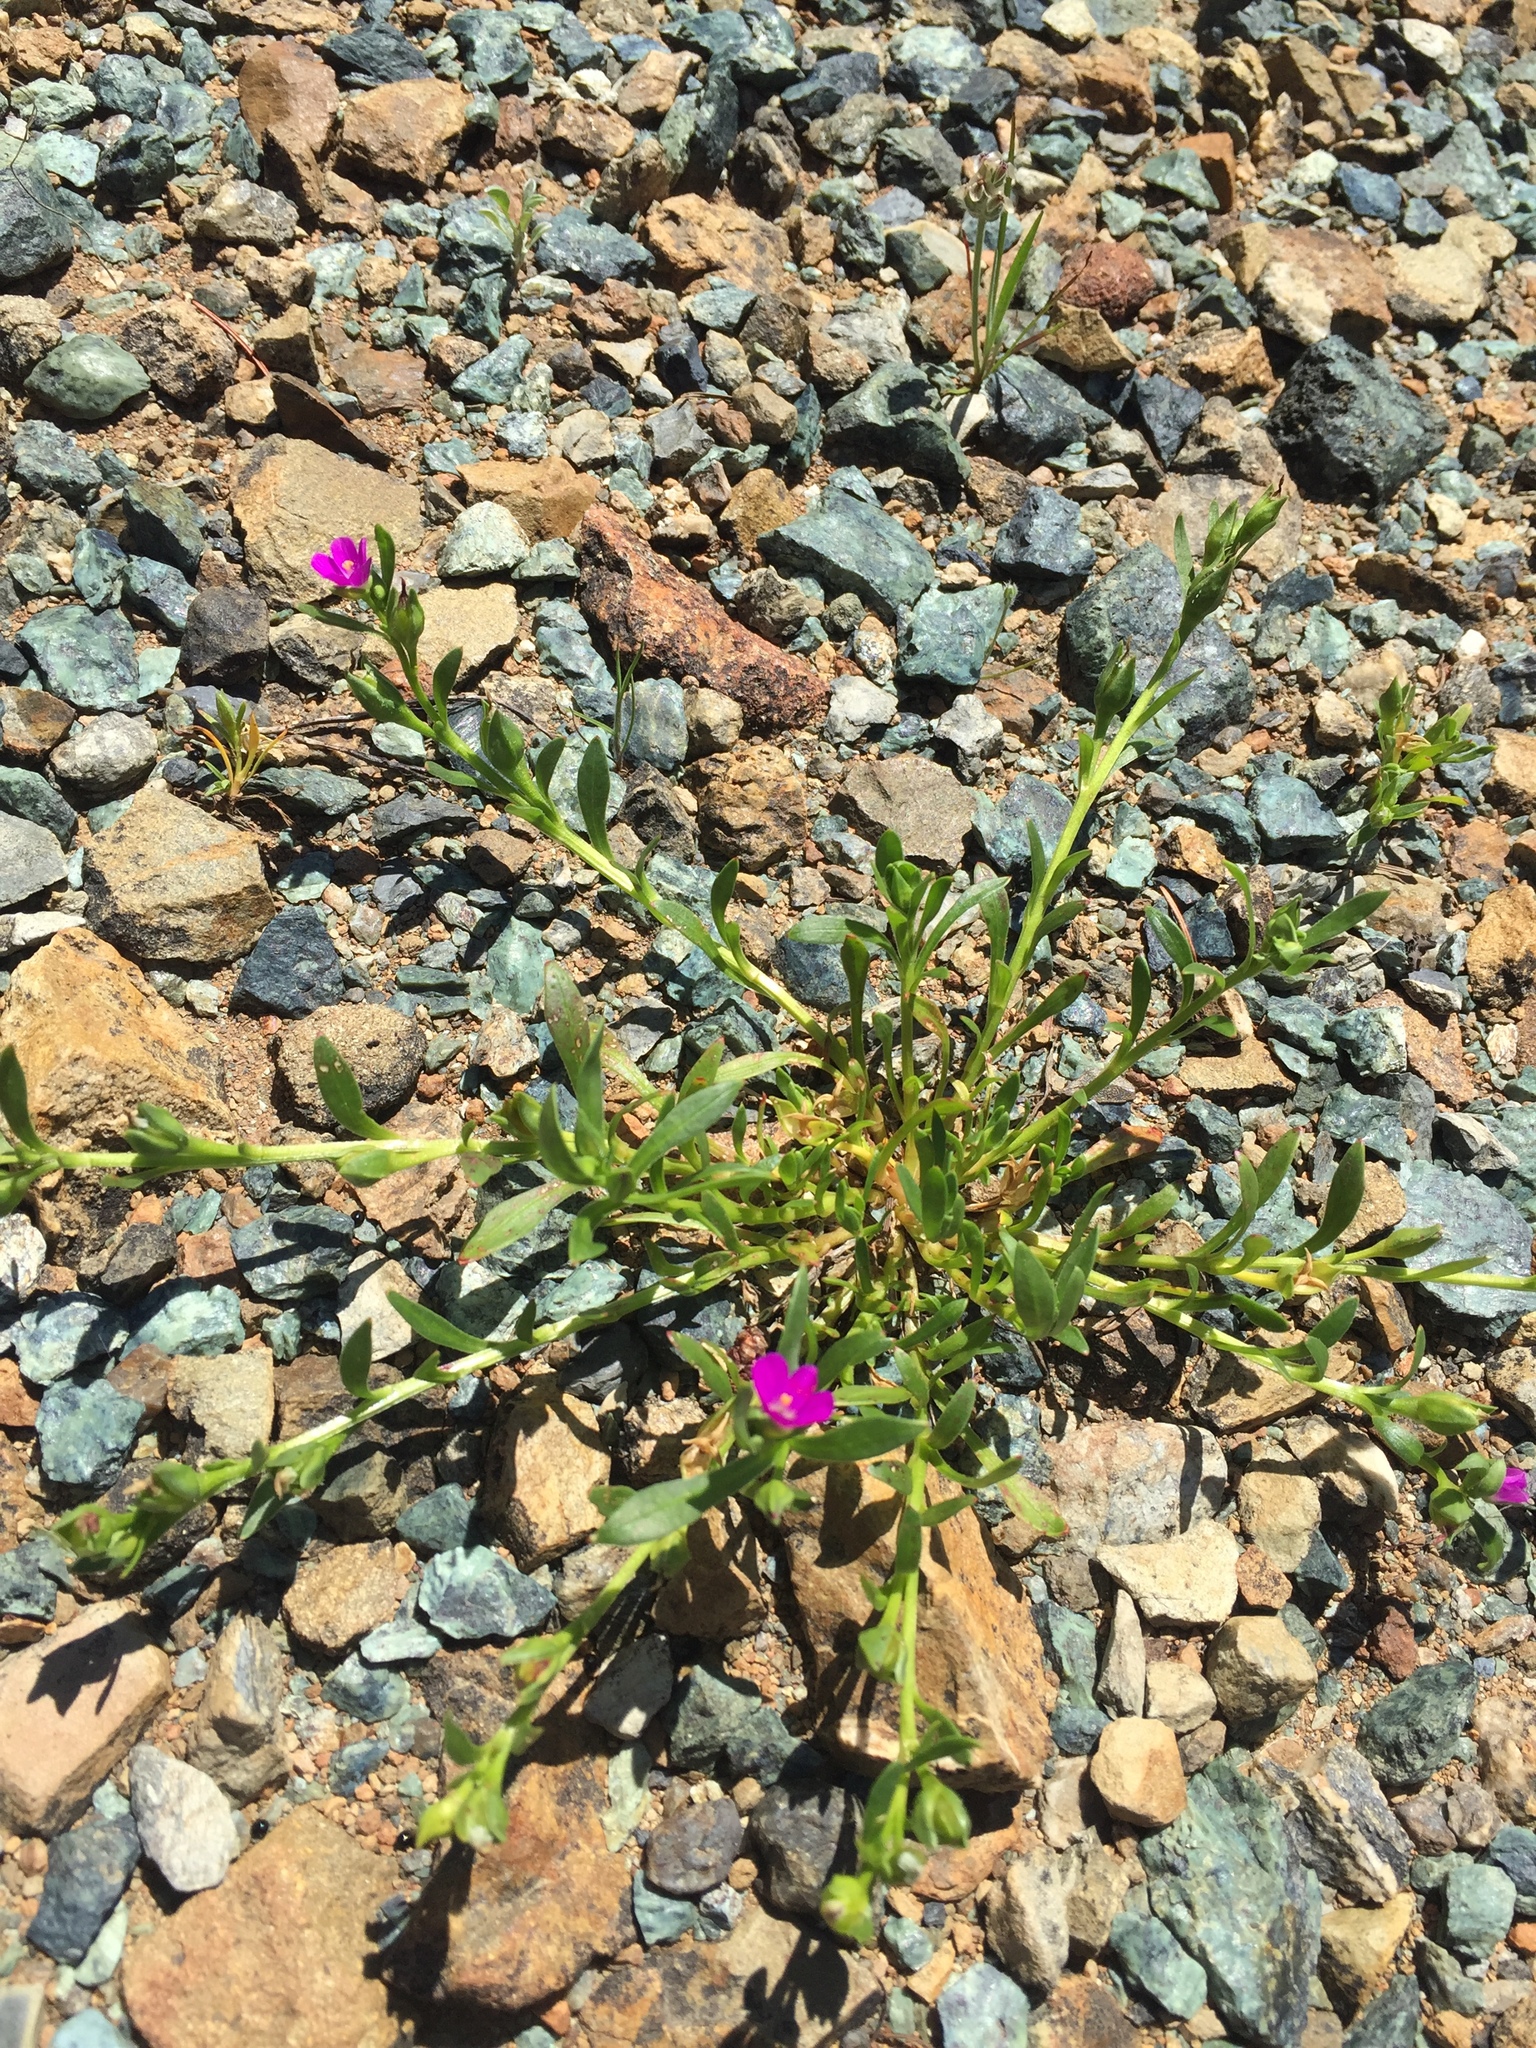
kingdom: Plantae
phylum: Tracheophyta
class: Magnoliopsida
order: Caryophyllales
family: Montiaceae
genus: Calandrinia
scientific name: Calandrinia menziesii
